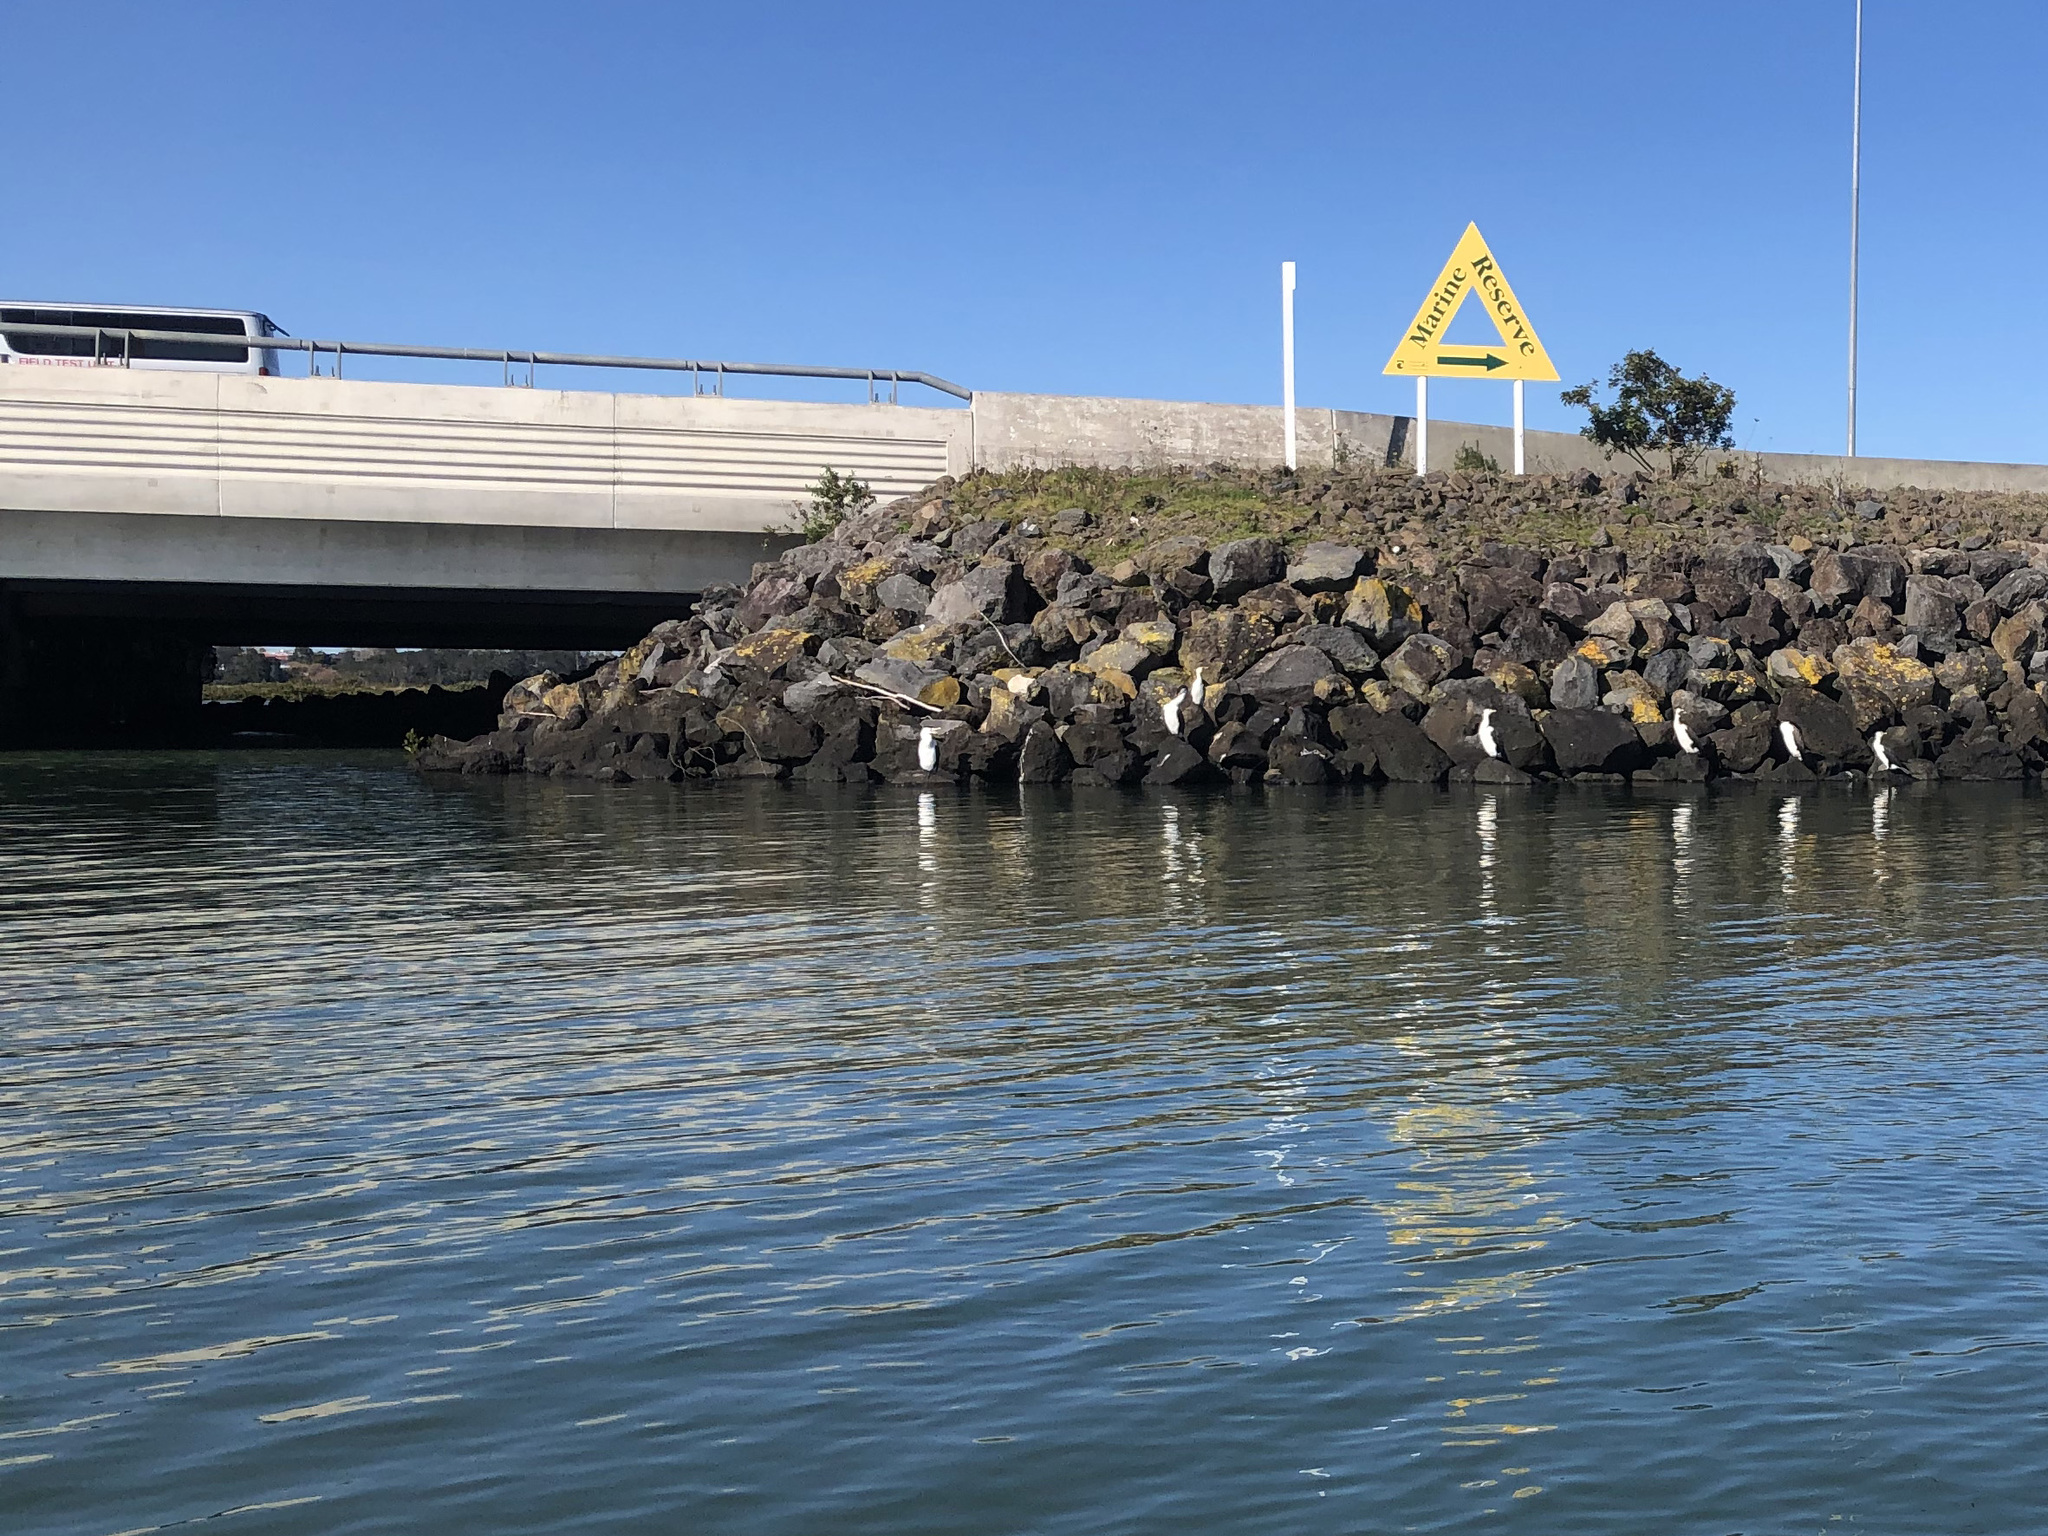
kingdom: Animalia
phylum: Chordata
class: Aves
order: Suliformes
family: Phalacrocoracidae
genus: Phalacrocorax
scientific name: Phalacrocorax varius
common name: Pied cormorant
